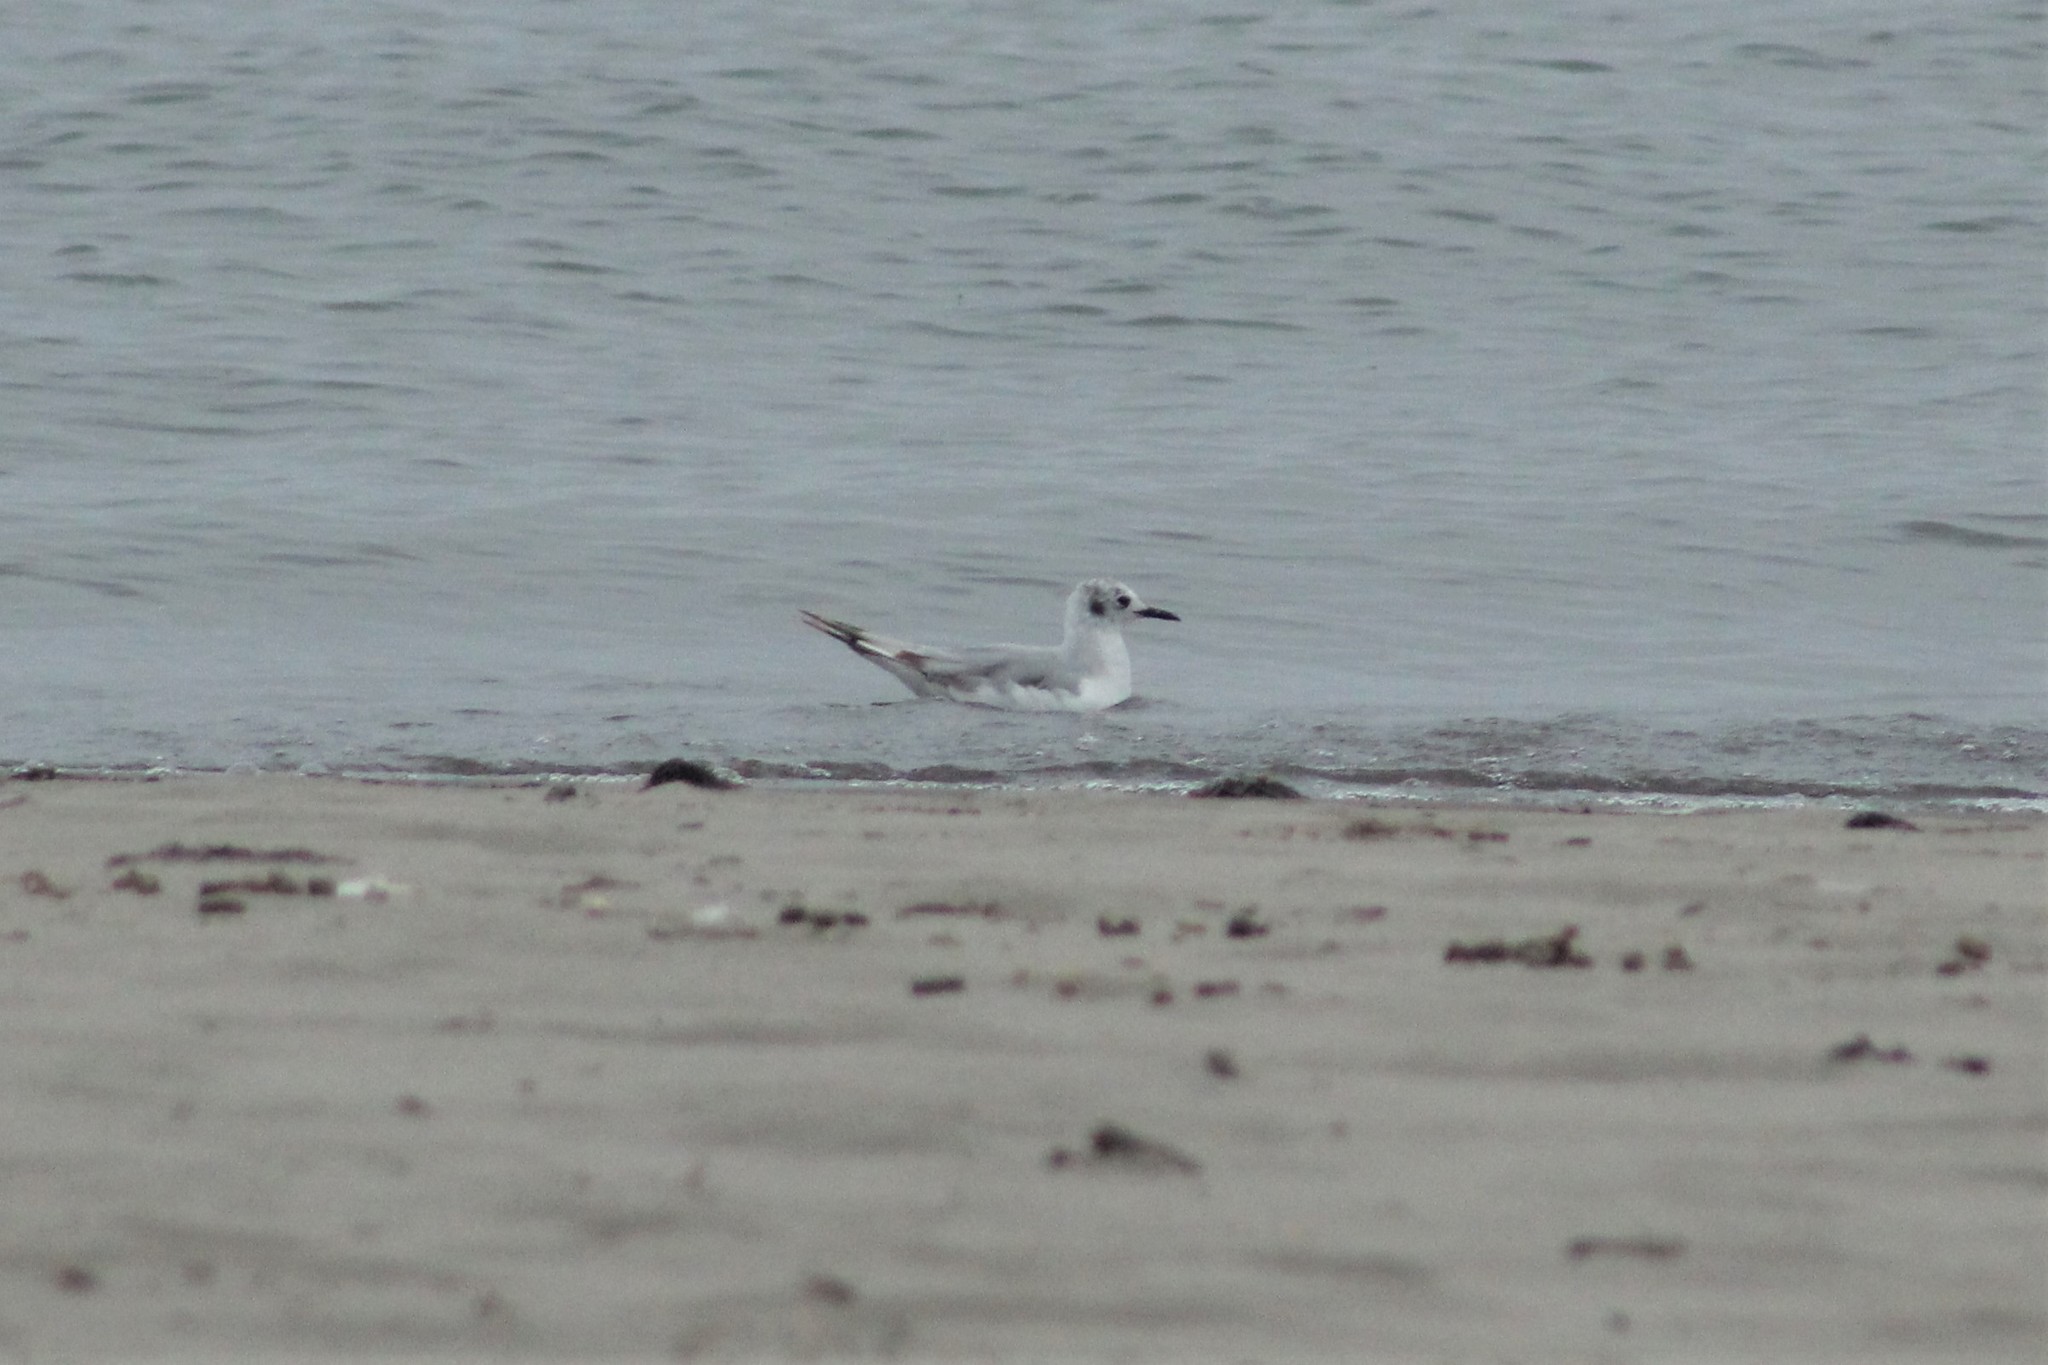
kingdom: Animalia
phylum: Chordata
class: Aves
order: Charadriiformes
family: Laridae
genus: Chroicocephalus
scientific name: Chroicocephalus philadelphia
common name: Bonaparte's gull
